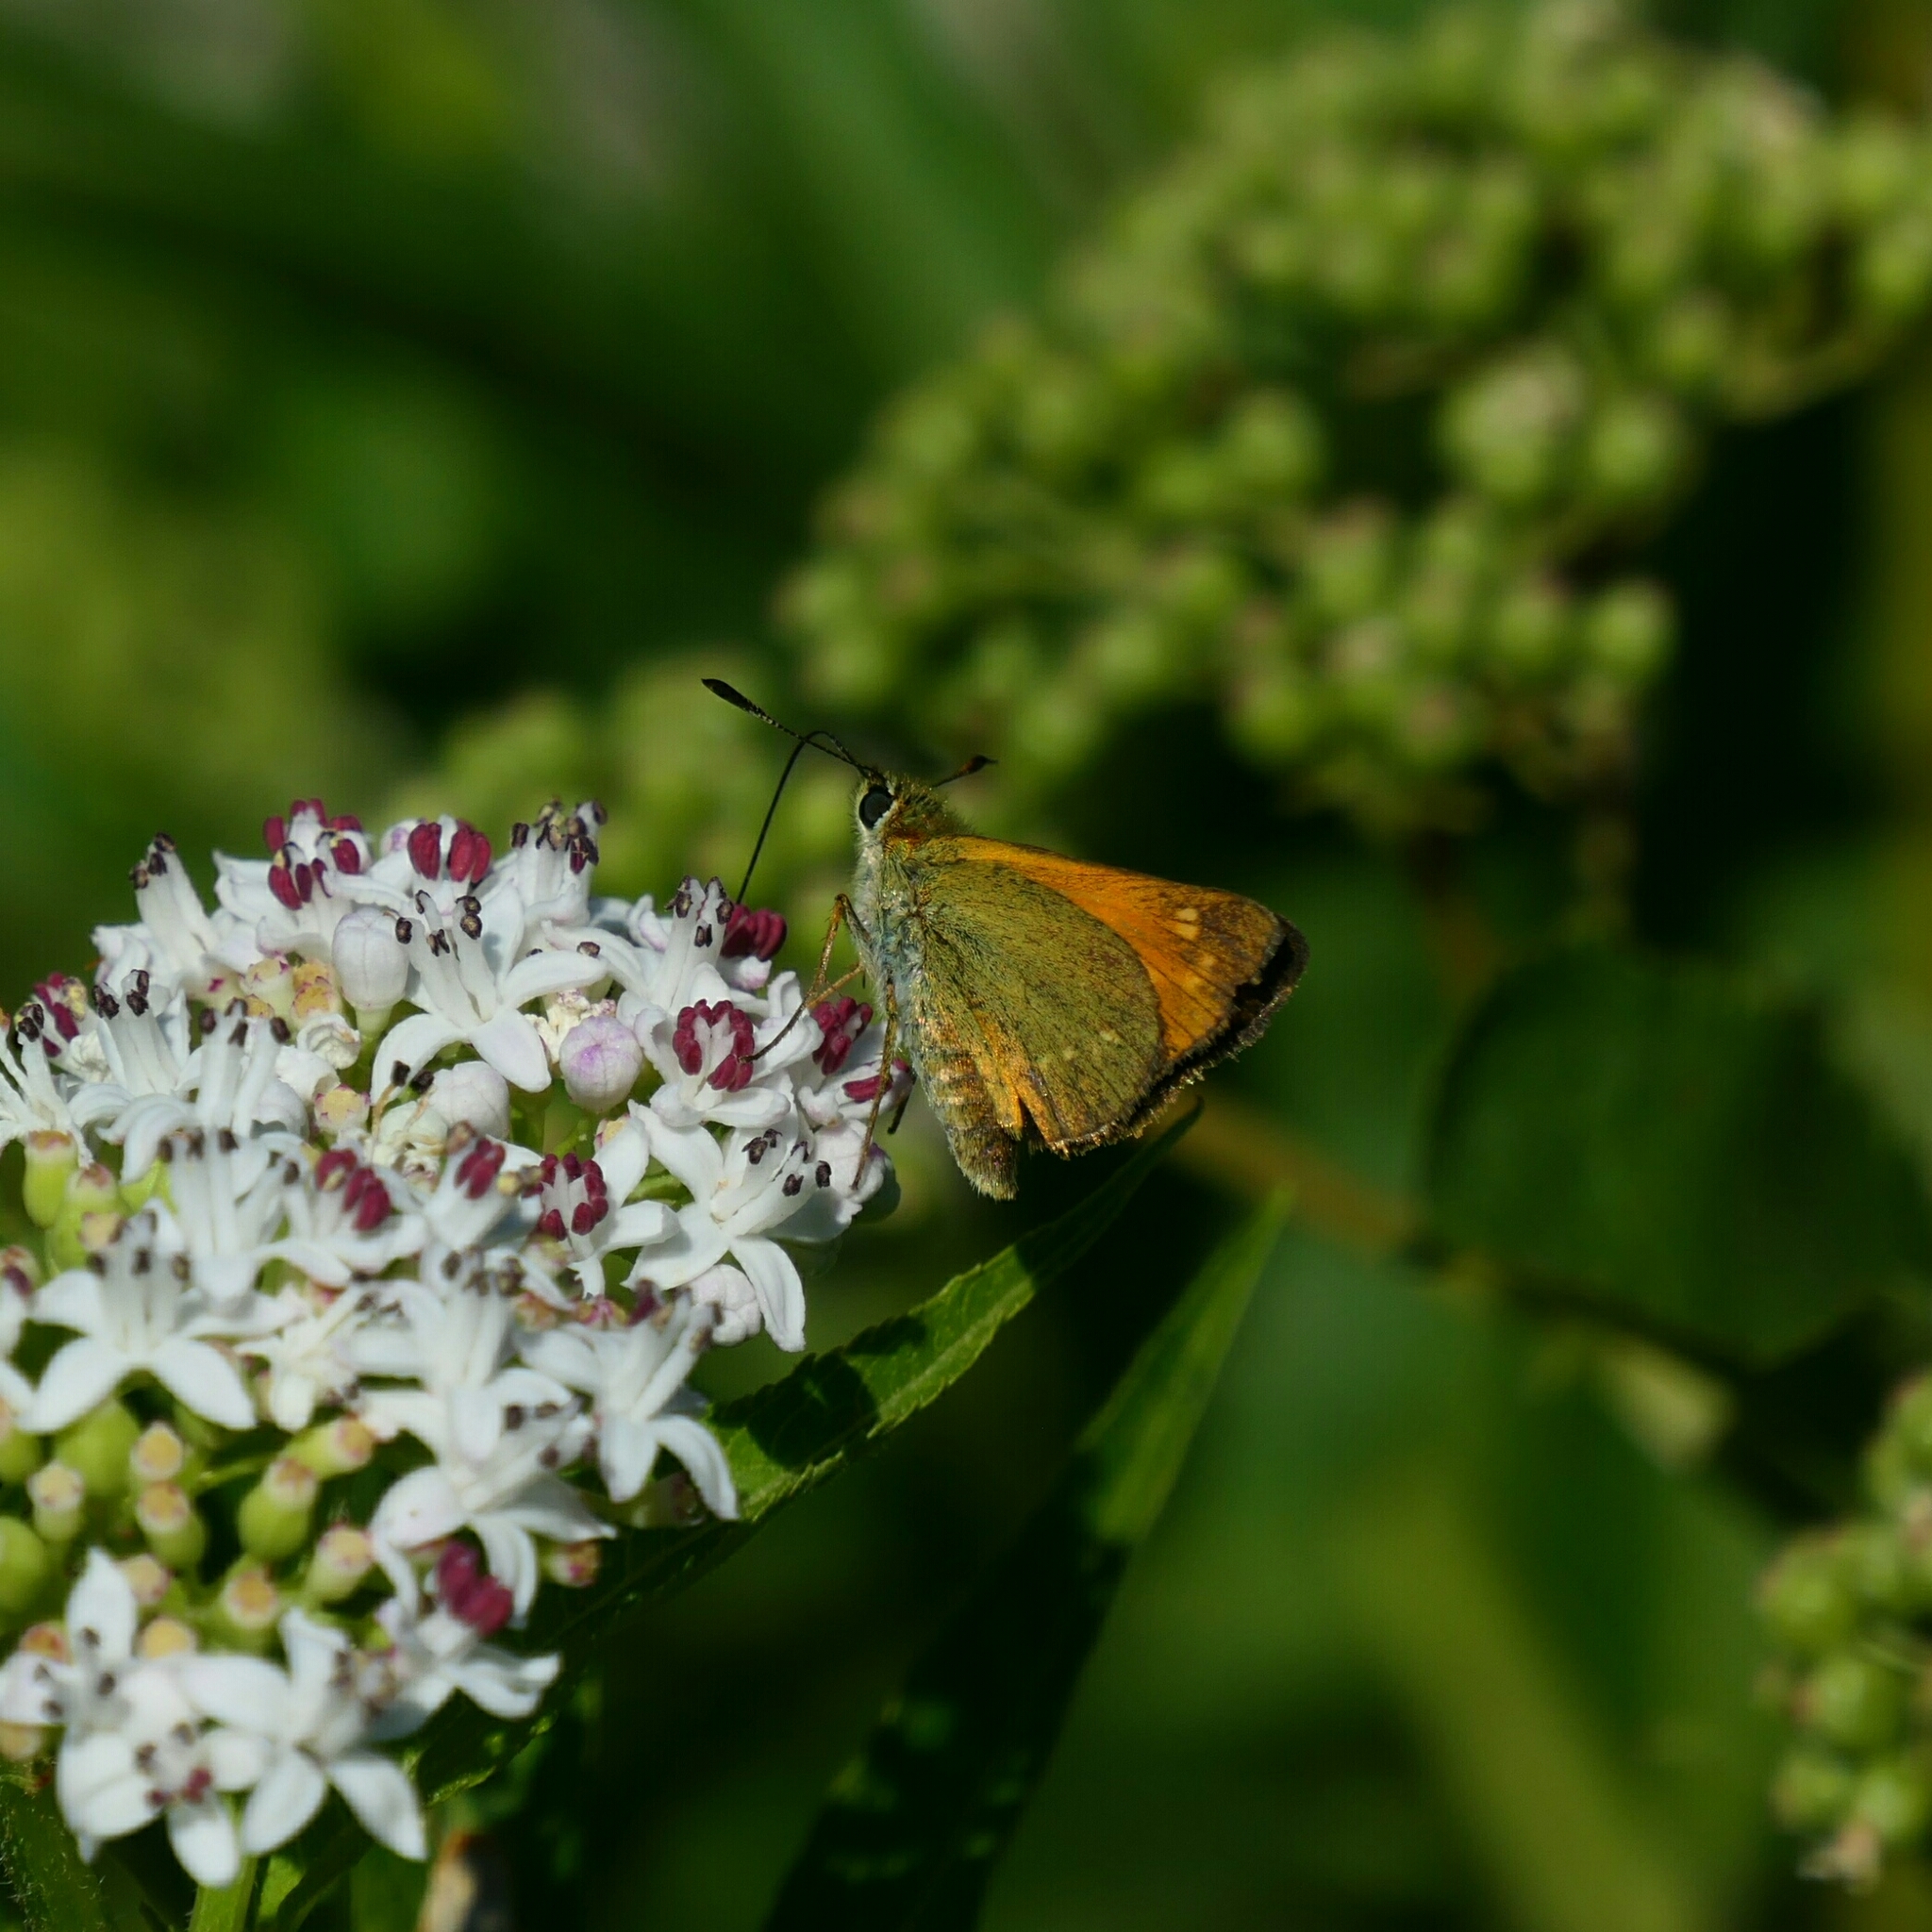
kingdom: Animalia
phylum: Arthropoda
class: Insecta
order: Lepidoptera
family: Hesperiidae
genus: Ochlodes
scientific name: Ochlodes venata
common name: Large skipper
